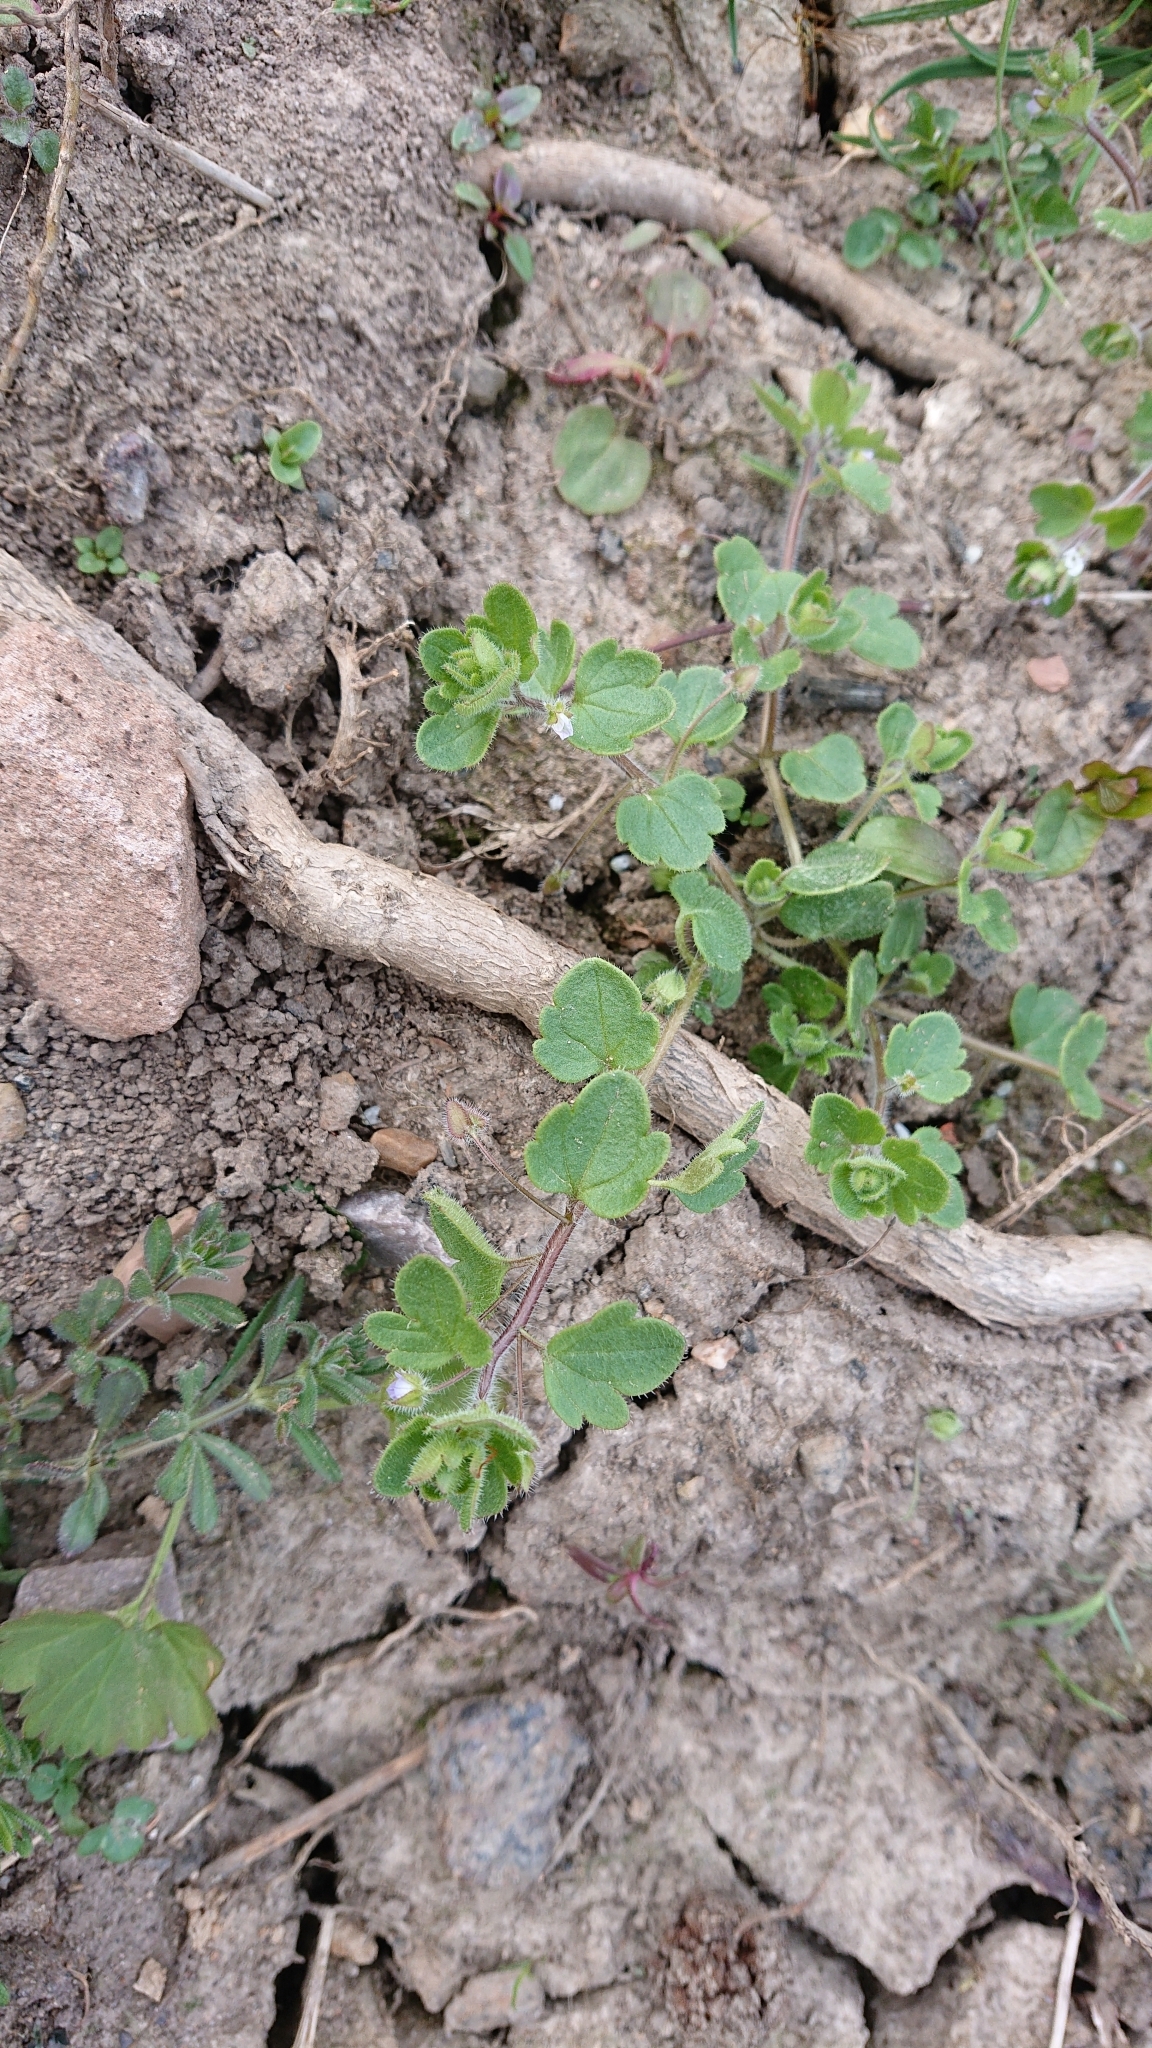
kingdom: Plantae
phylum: Tracheophyta
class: Magnoliopsida
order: Lamiales
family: Plantaginaceae
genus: Veronica
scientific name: Veronica hederifolia
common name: Ivy-leaved speedwell
